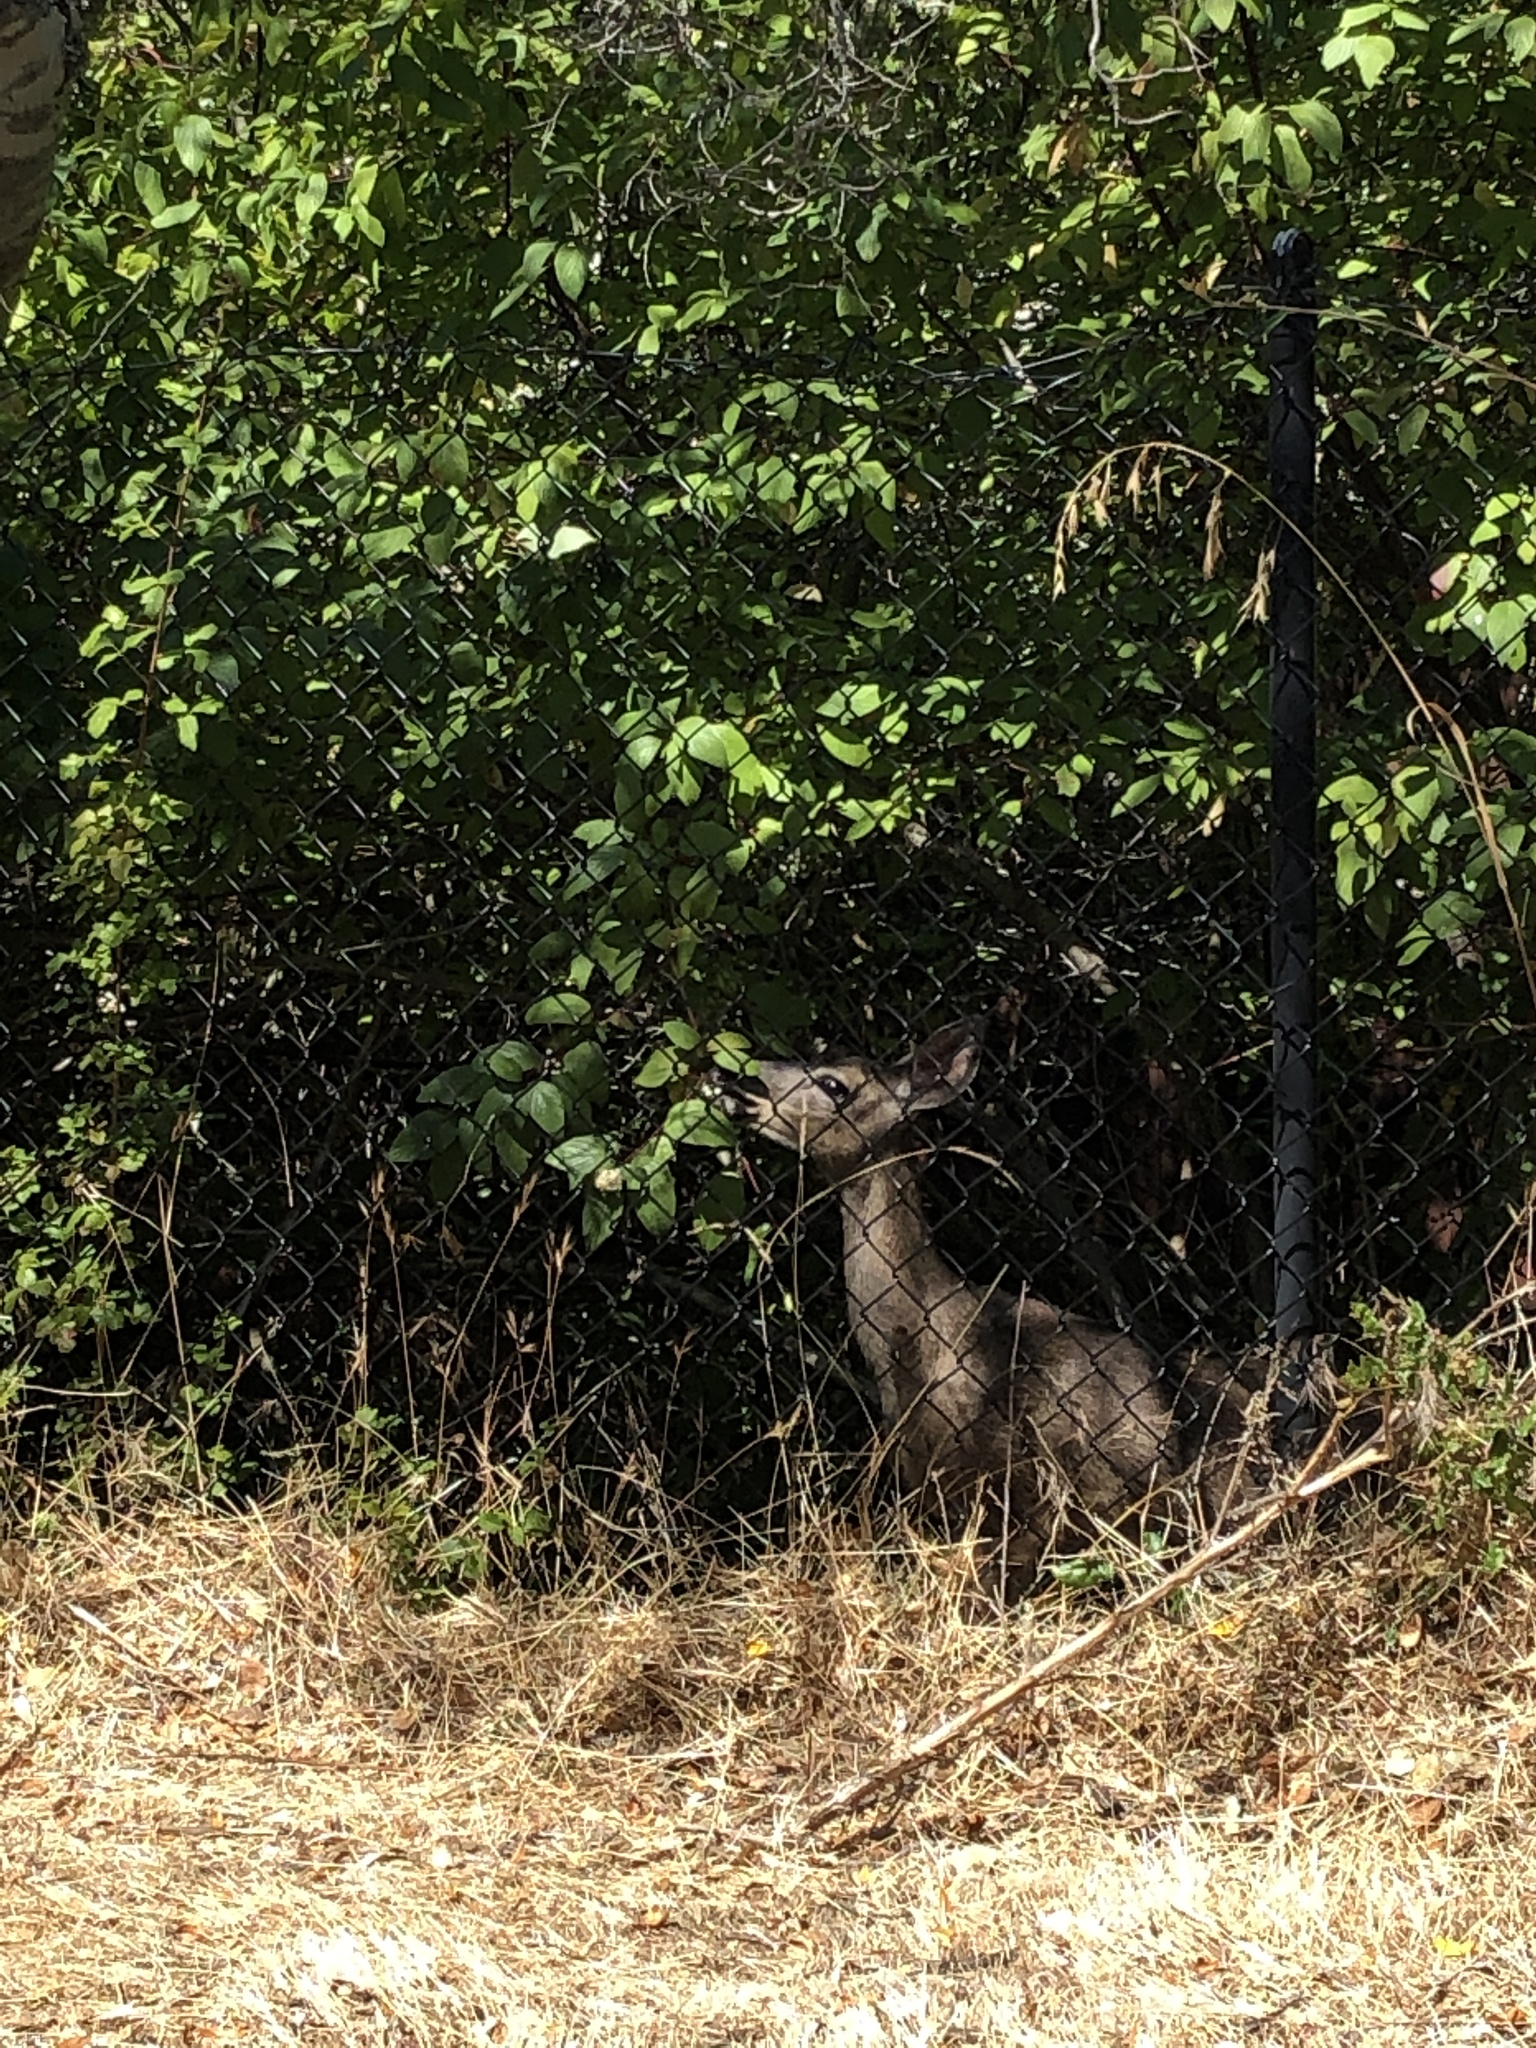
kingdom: Animalia
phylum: Chordata
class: Mammalia
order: Artiodactyla
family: Cervidae
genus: Odocoileus
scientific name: Odocoileus hemionus
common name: Mule deer
